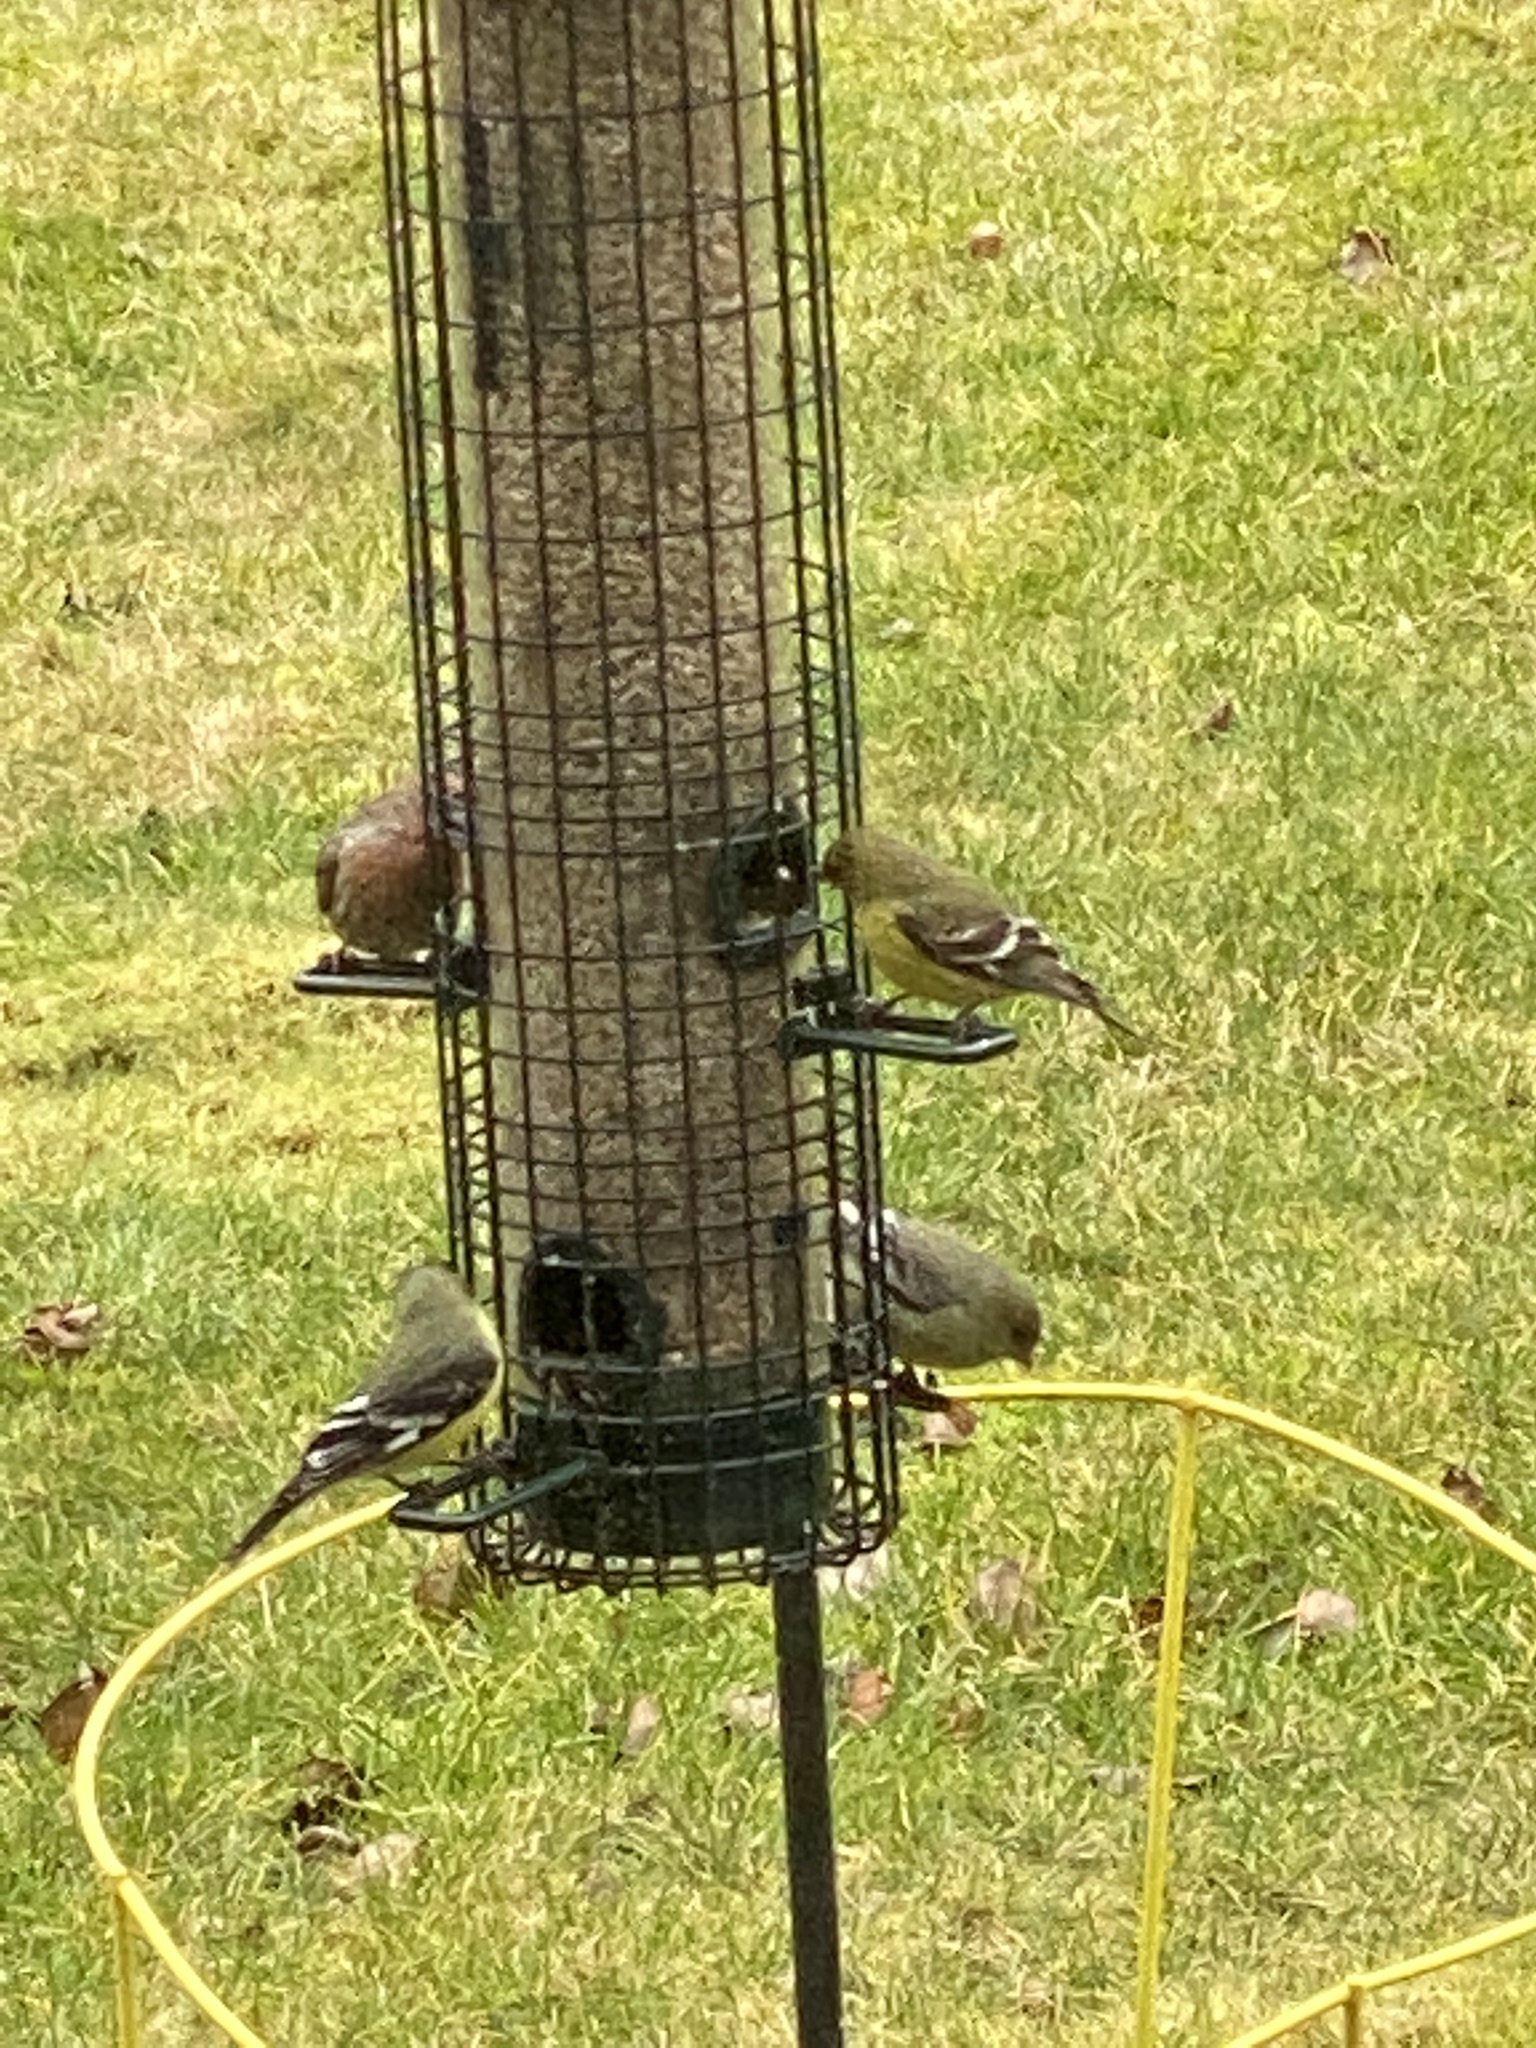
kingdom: Animalia
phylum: Chordata
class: Aves
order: Passeriformes
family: Fringillidae
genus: Haemorhous
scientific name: Haemorhous mexicanus
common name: House finch
